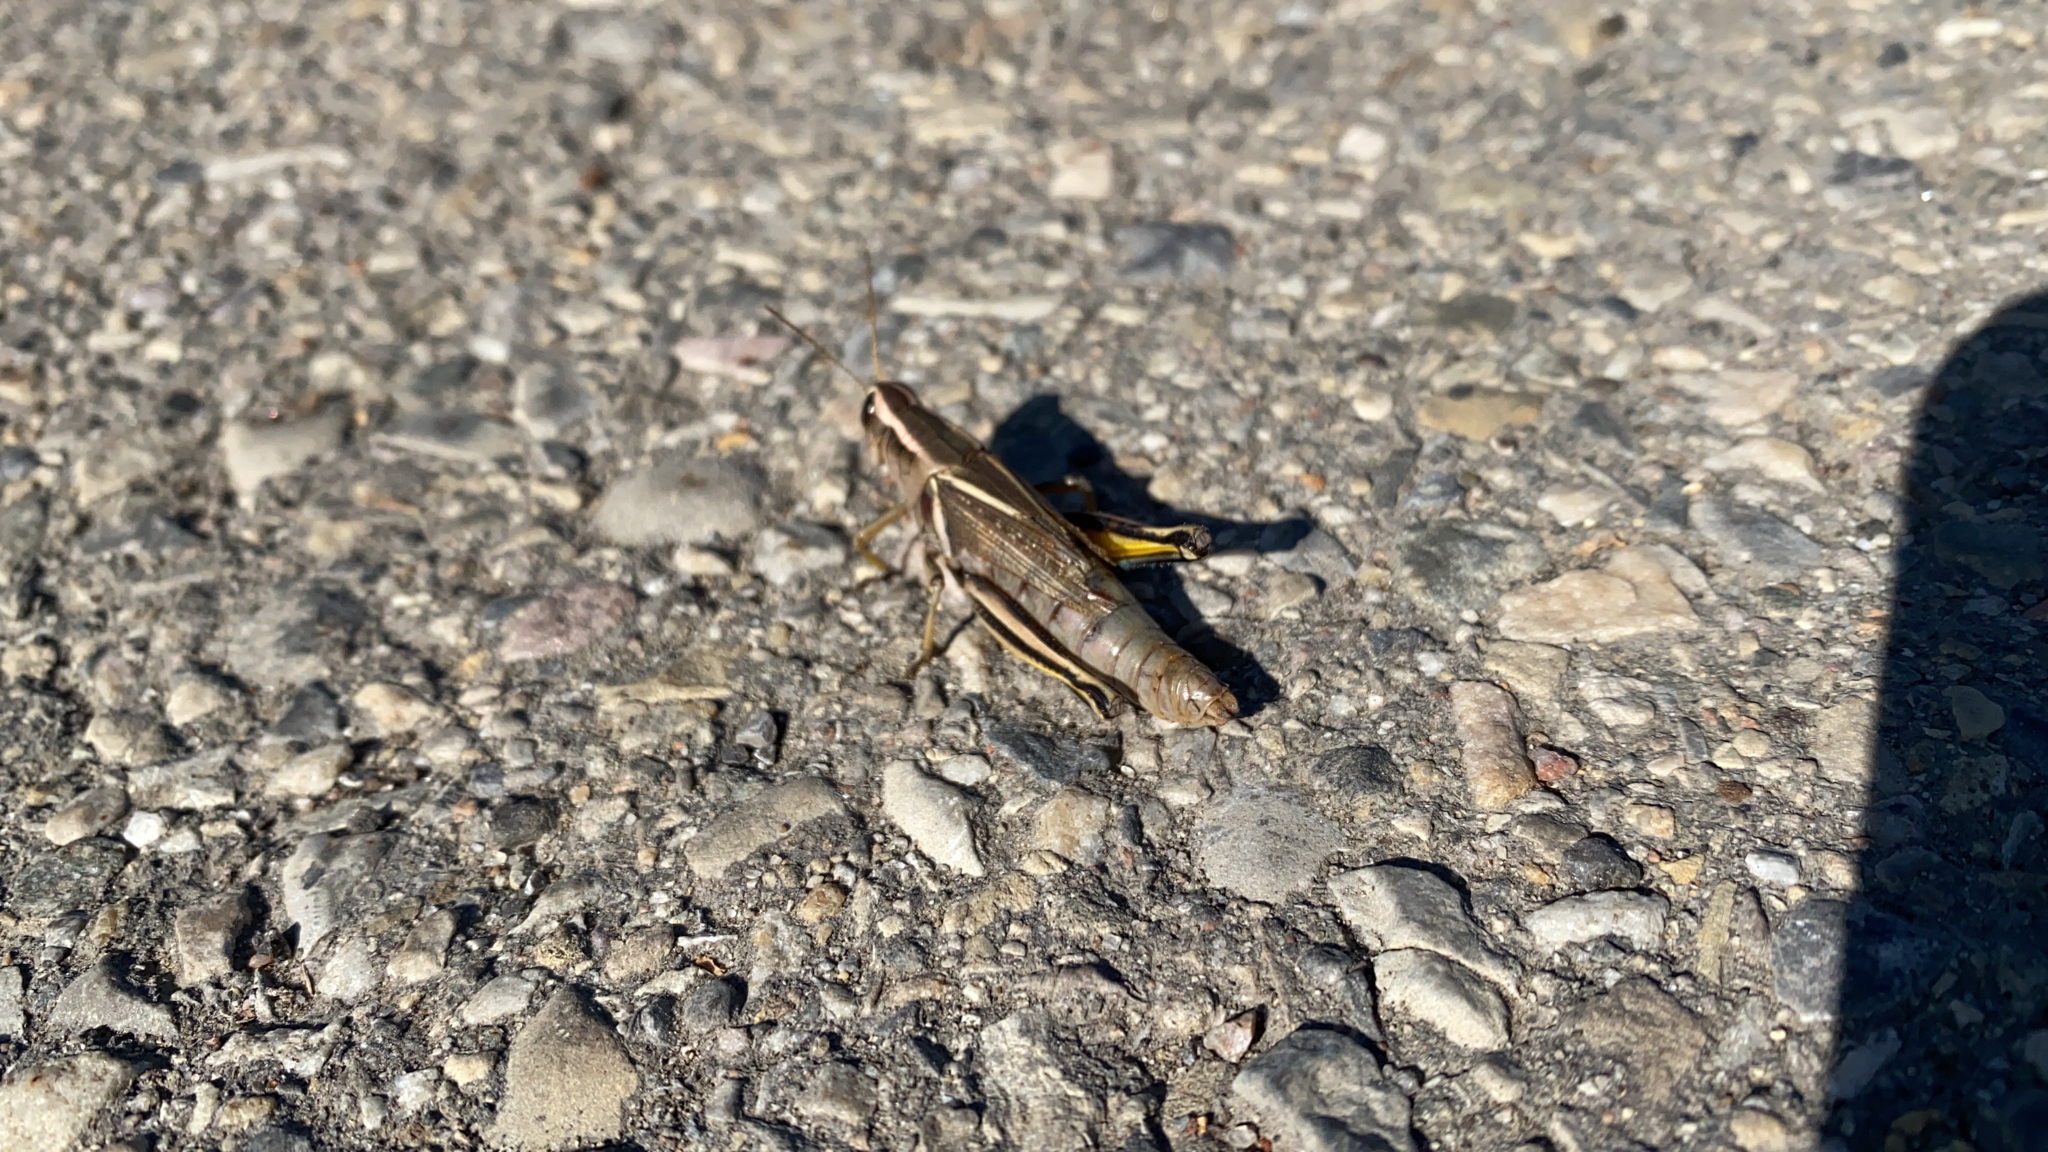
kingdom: Animalia
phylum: Arthropoda
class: Insecta
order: Orthoptera
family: Acrididae
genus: Melanoplus
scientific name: Melanoplus bivittatus
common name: Two-striped grasshopper
